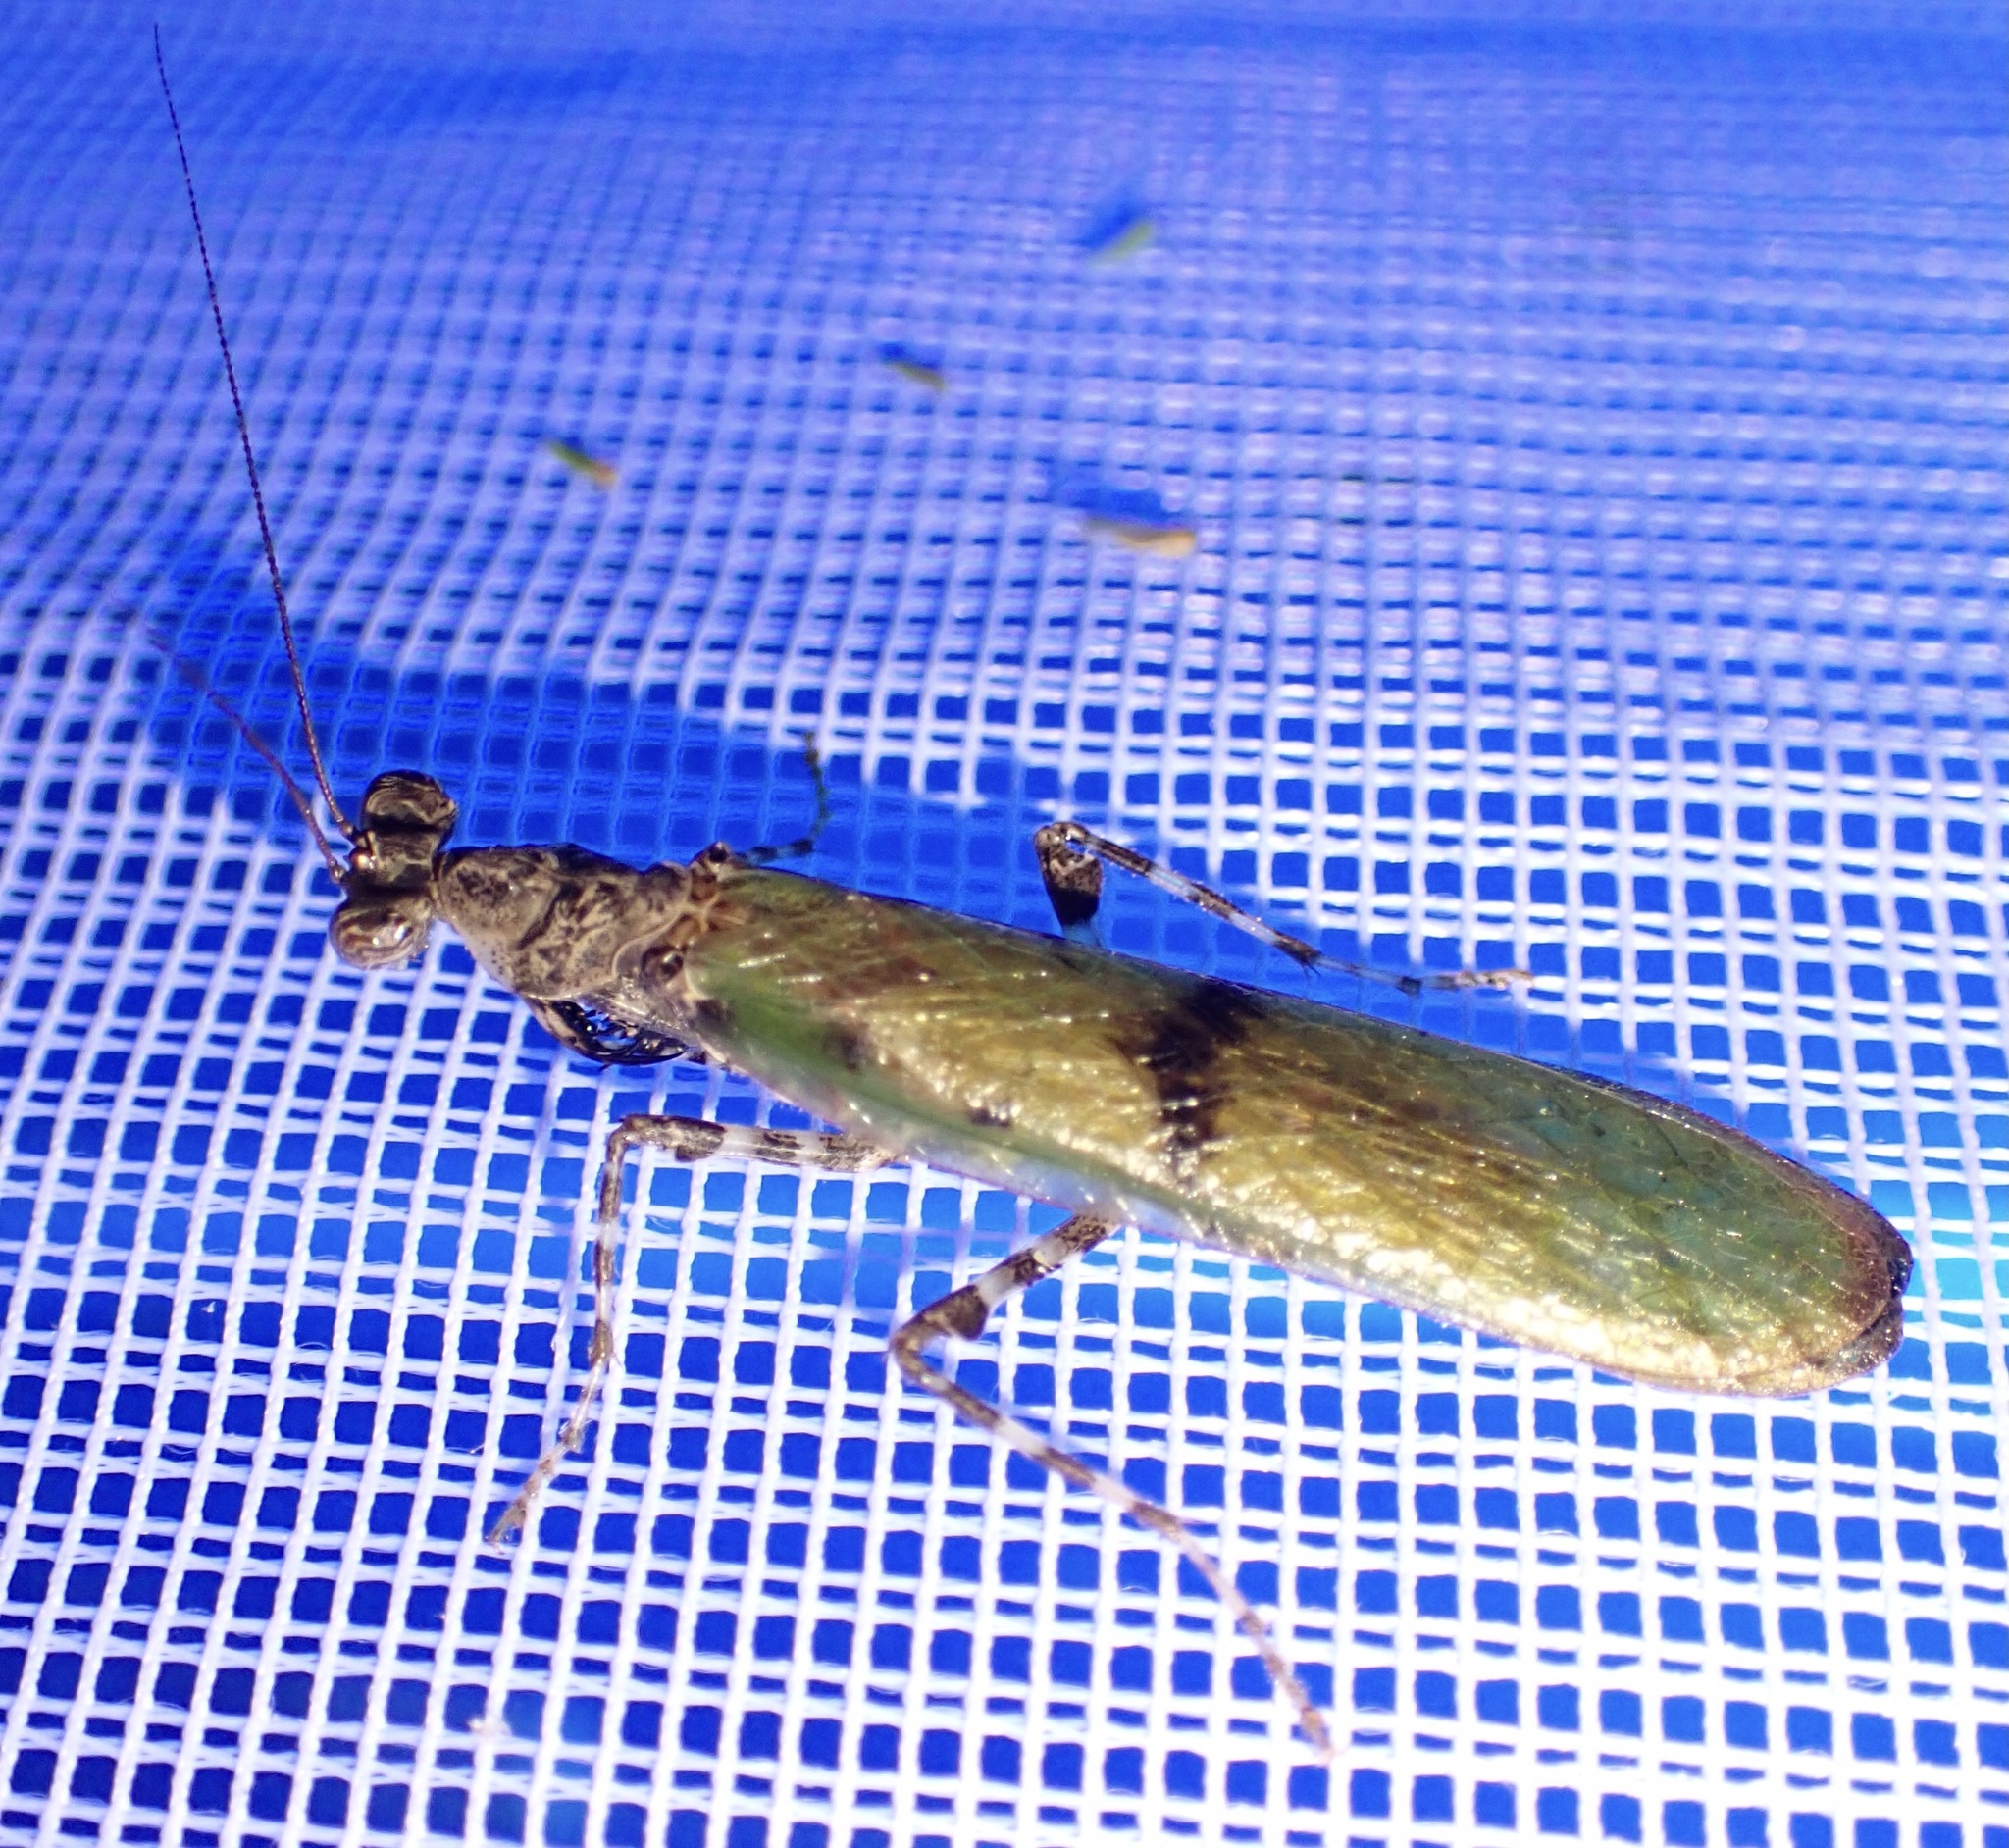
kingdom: Animalia
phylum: Arthropoda
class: Insecta
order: Mantodea
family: Hymenopodidae
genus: Panurgica
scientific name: Panurgica compressicollis
